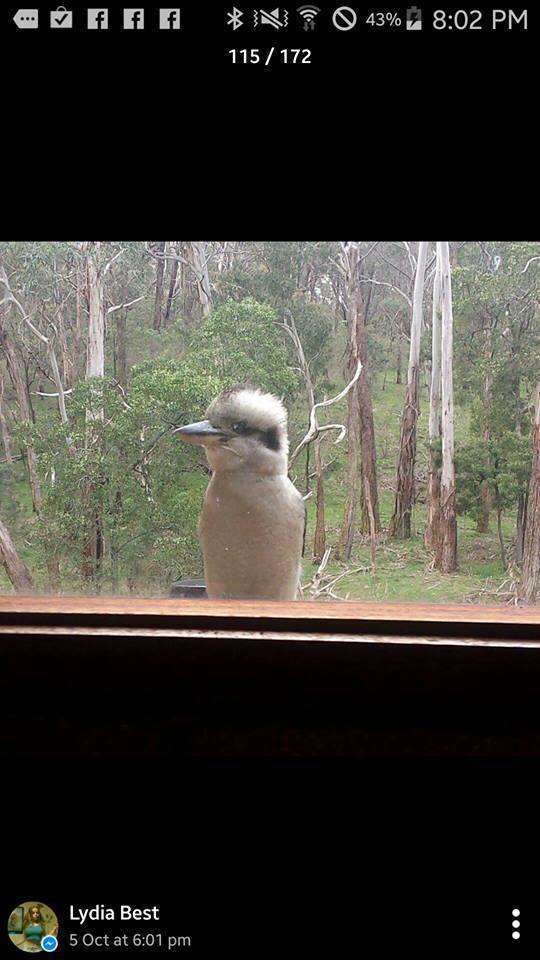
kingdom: Animalia
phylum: Chordata
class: Aves
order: Coraciiformes
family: Alcedinidae
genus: Dacelo
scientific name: Dacelo novaeguineae
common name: Laughing kookaburra
